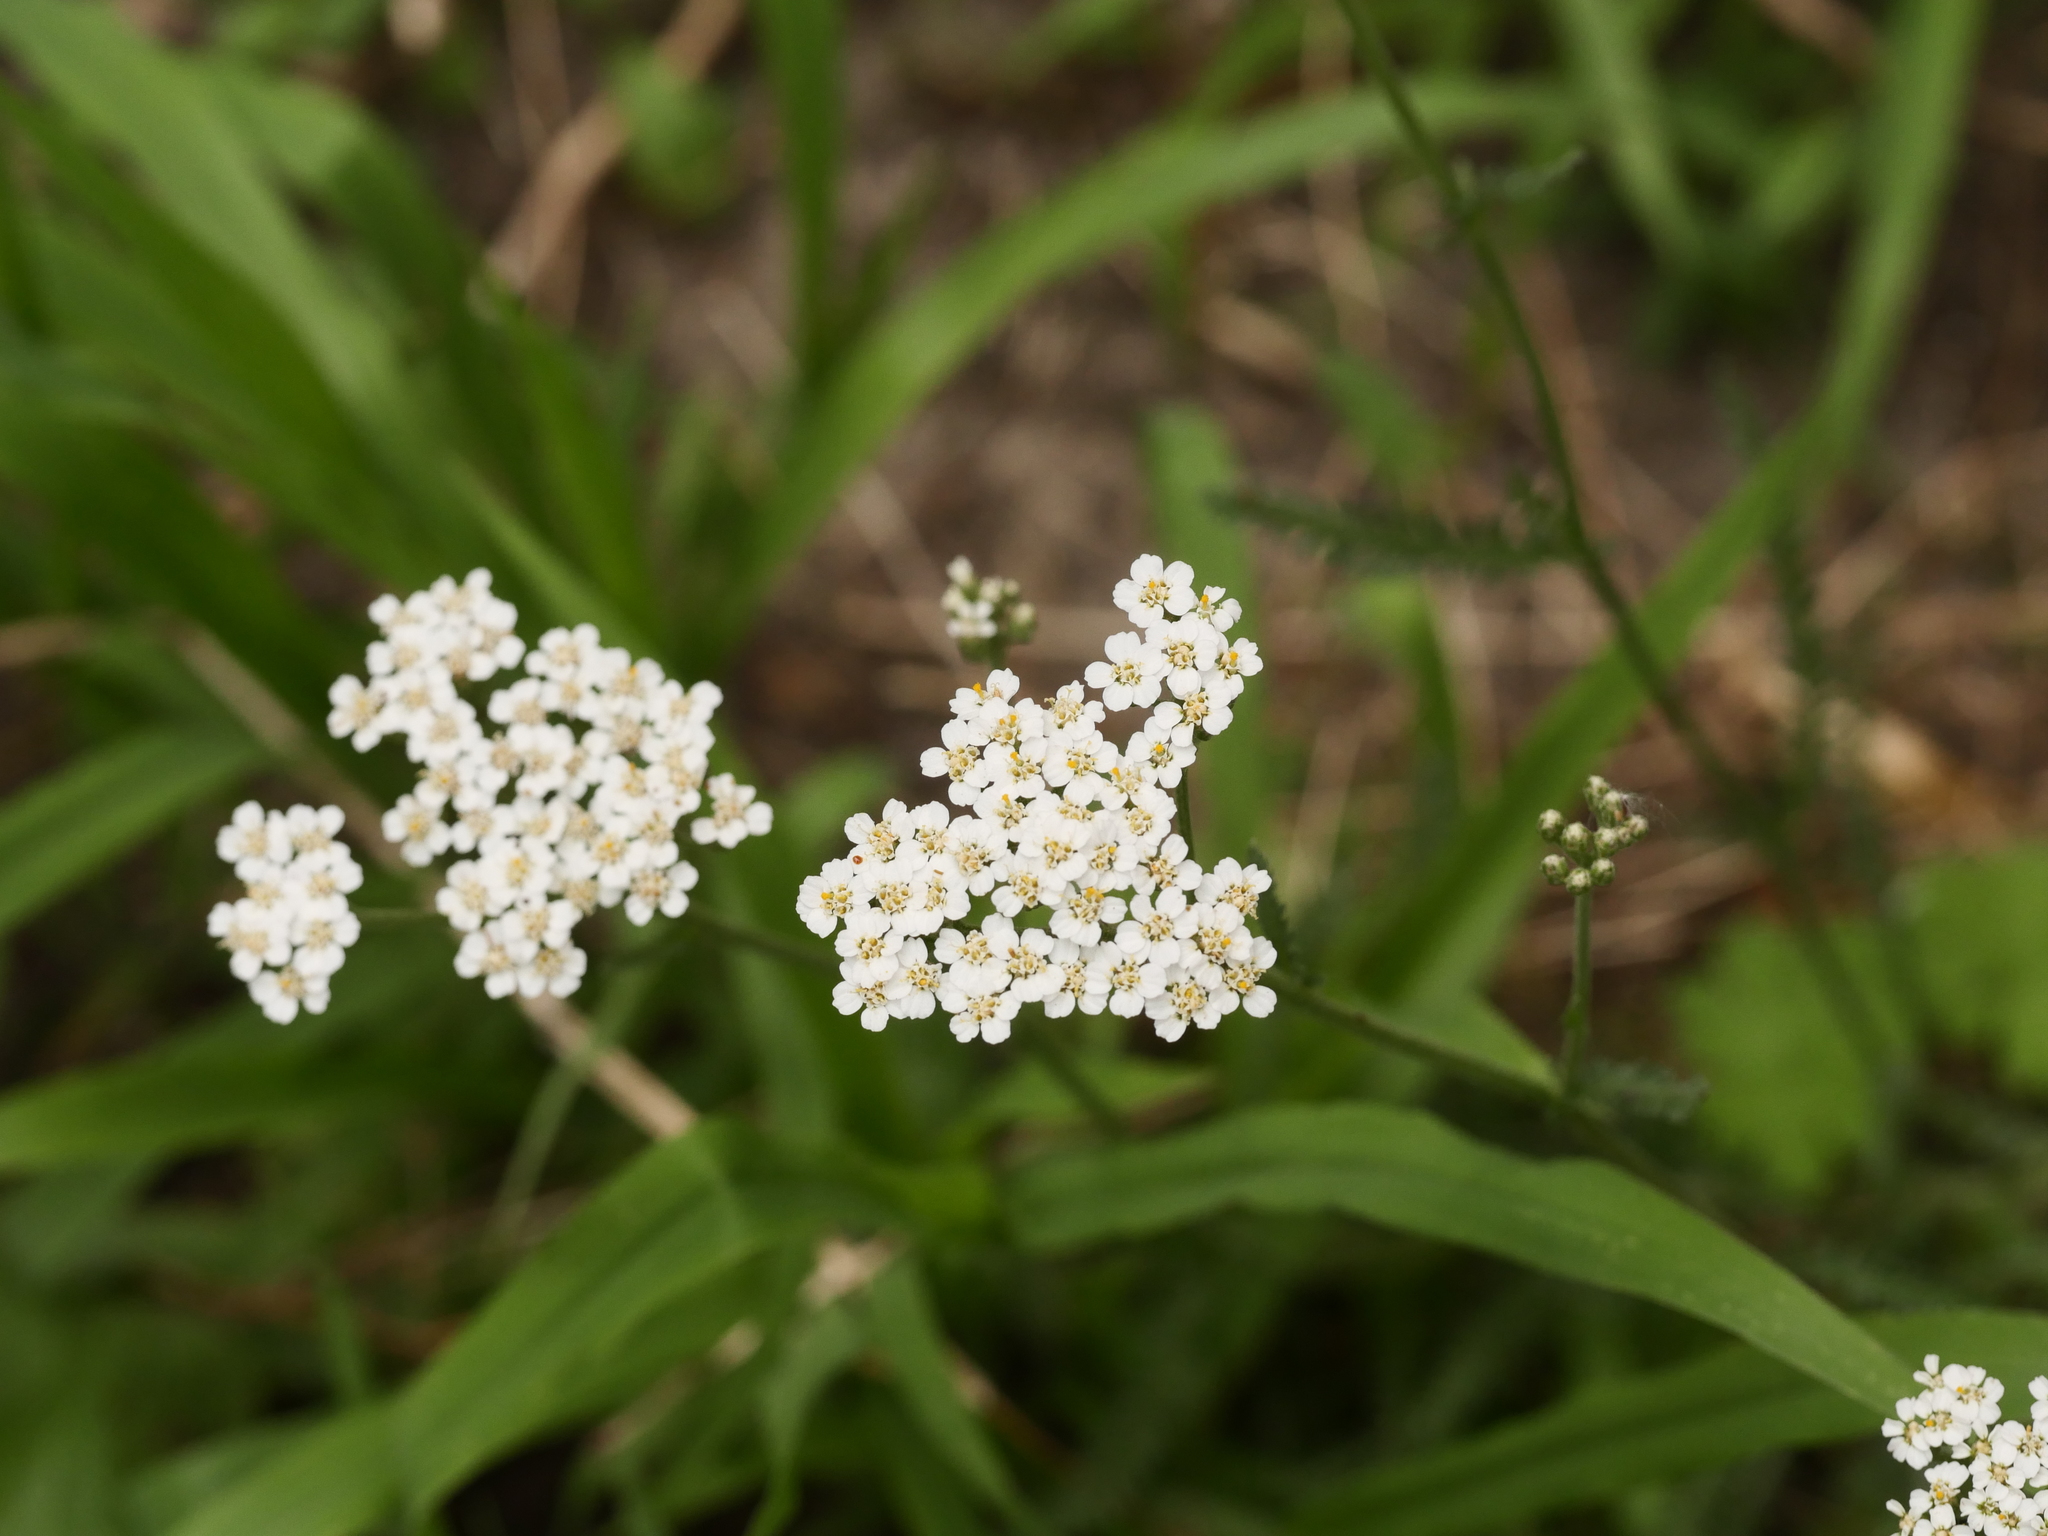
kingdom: Plantae
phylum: Tracheophyta
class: Magnoliopsida
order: Asterales
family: Asteraceae
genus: Achillea
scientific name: Achillea millefolium
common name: Yarrow
